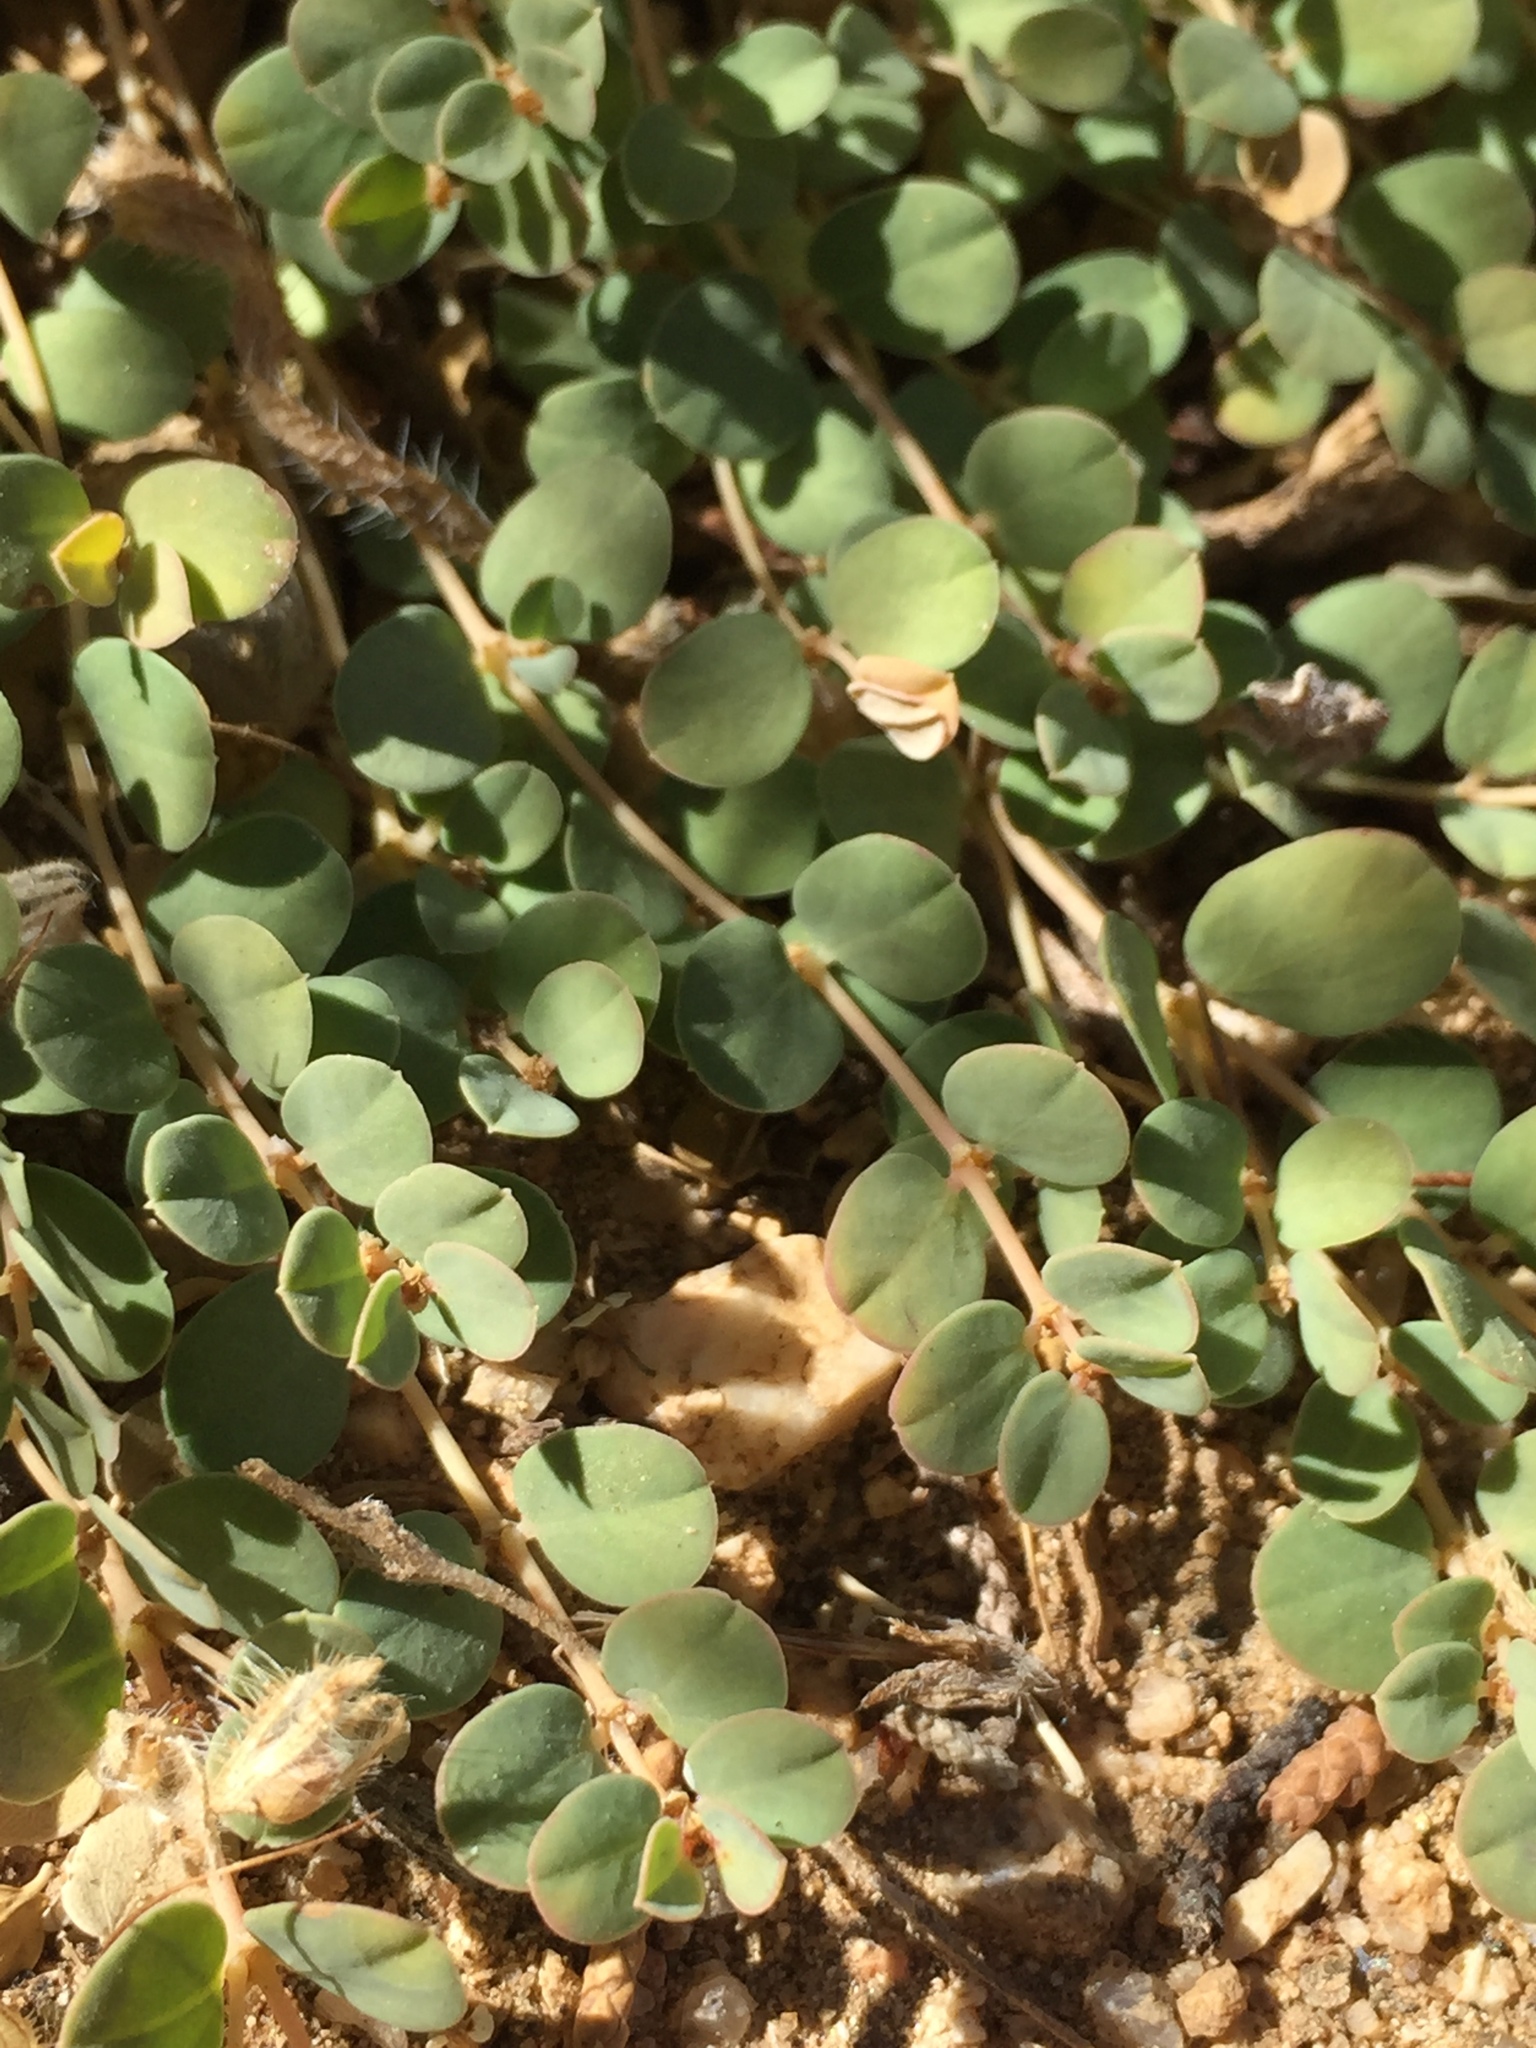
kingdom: Plantae
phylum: Tracheophyta
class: Magnoliopsida
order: Malpighiales
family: Euphorbiaceae
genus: Euphorbia
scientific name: Euphorbia albomarginata
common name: Whitemargin sandmat
